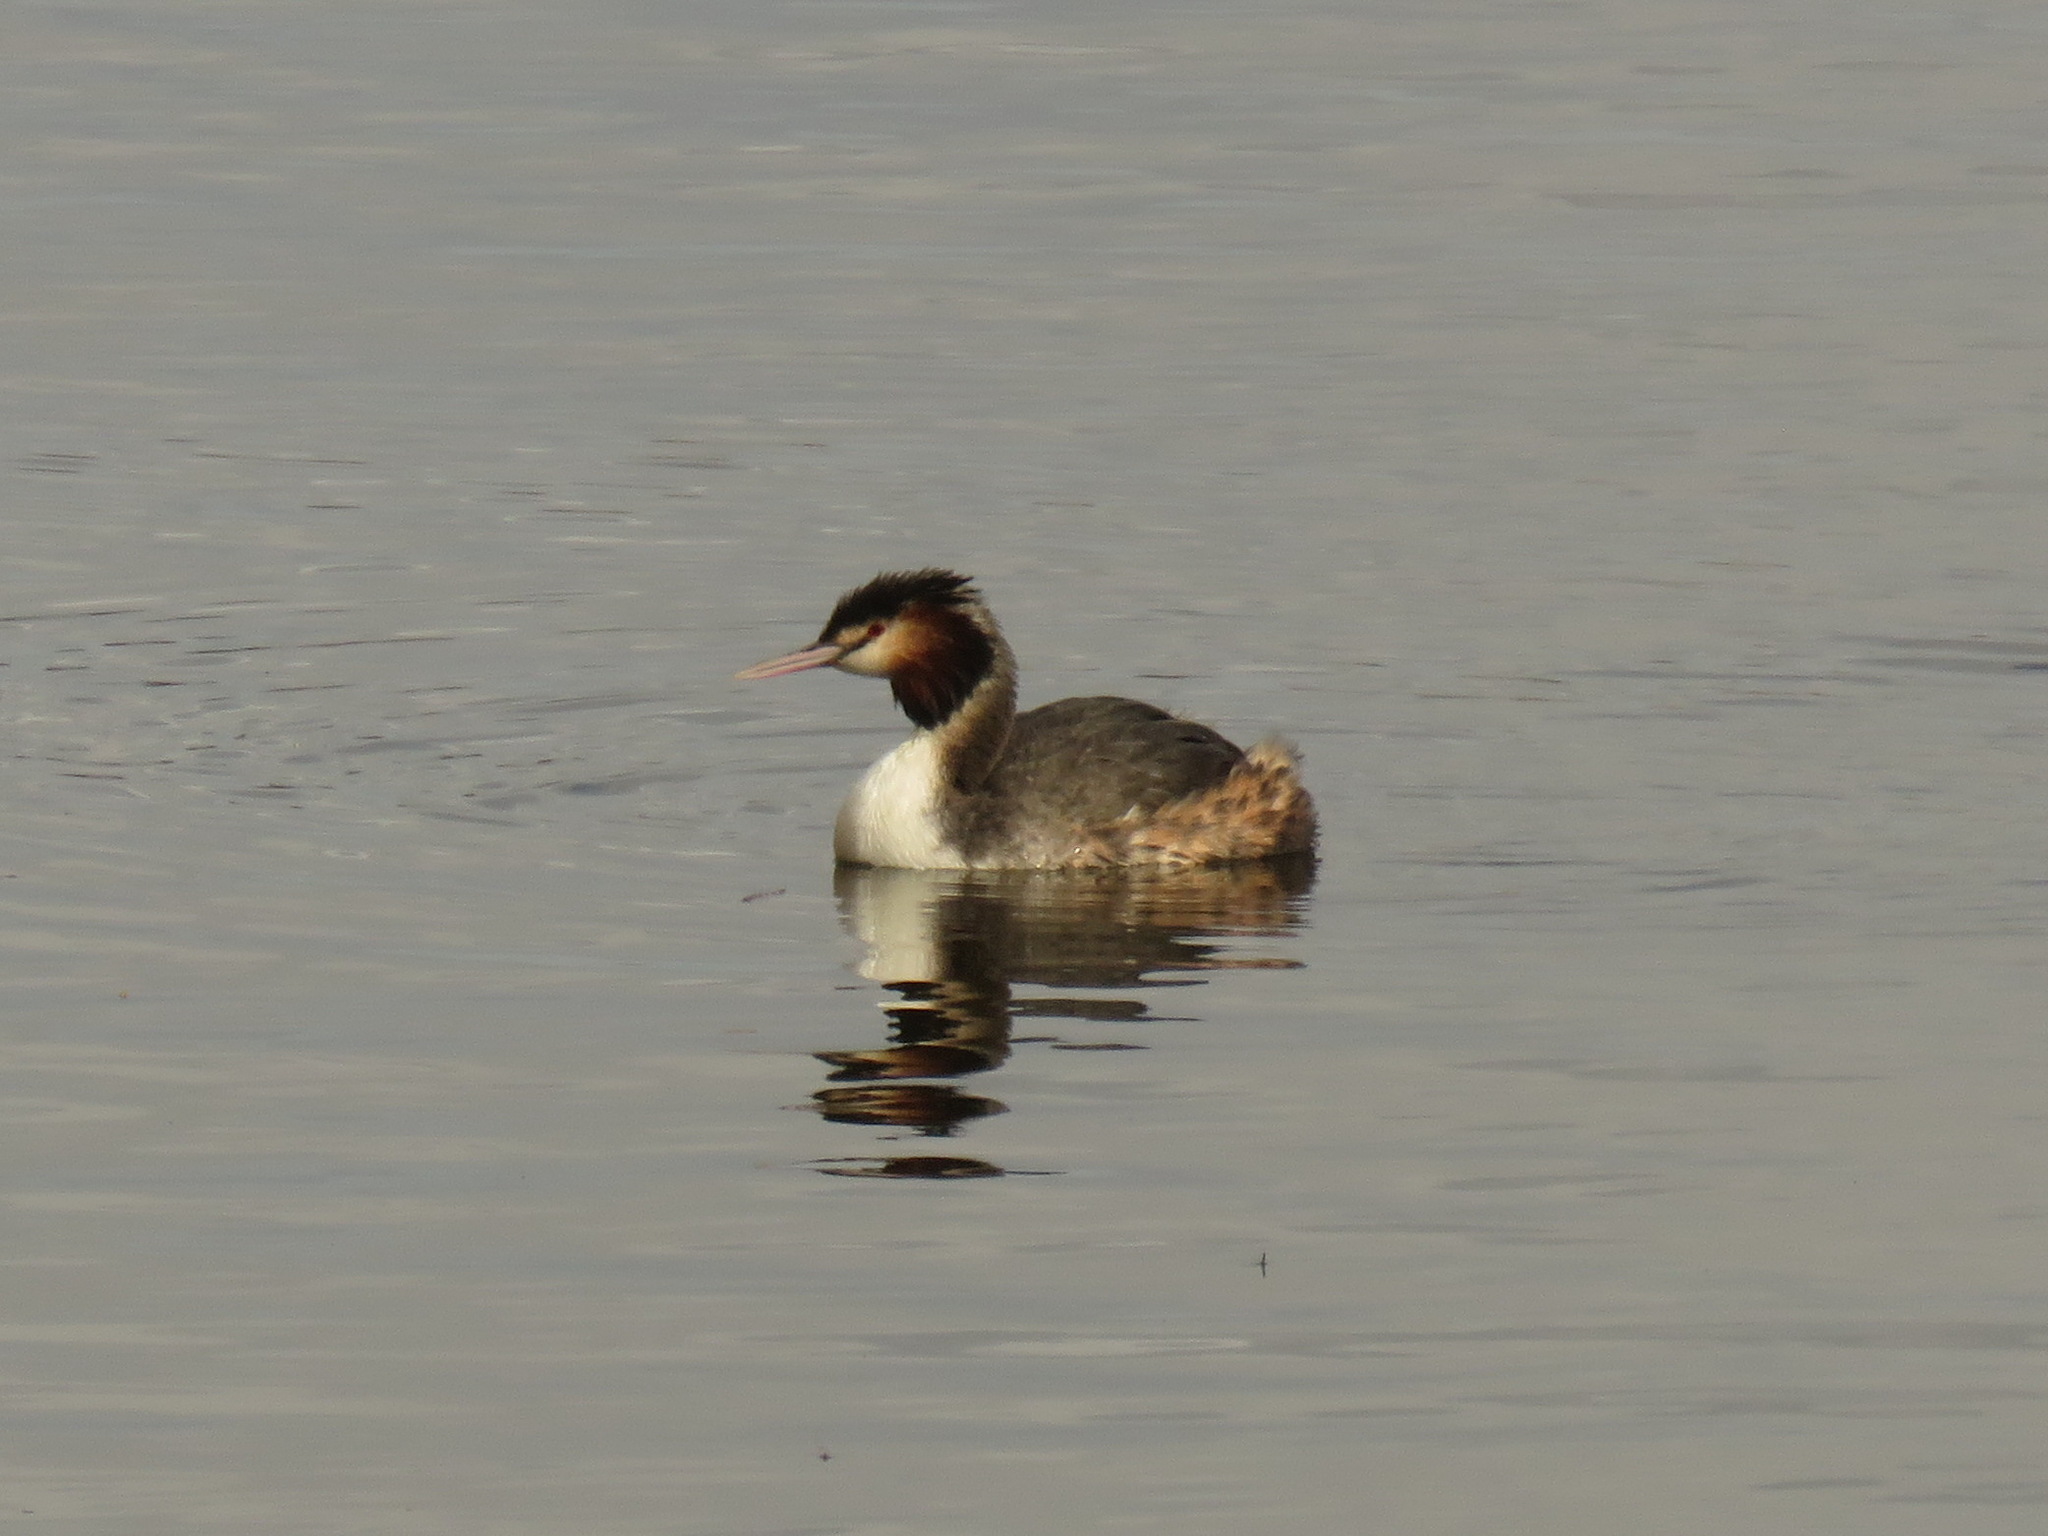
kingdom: Animalia
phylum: Chordata
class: Aves
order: Podicipediformes
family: Podicipedidae
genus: Podiceps
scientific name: Podiceps cristatus
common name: Great crested grebe
